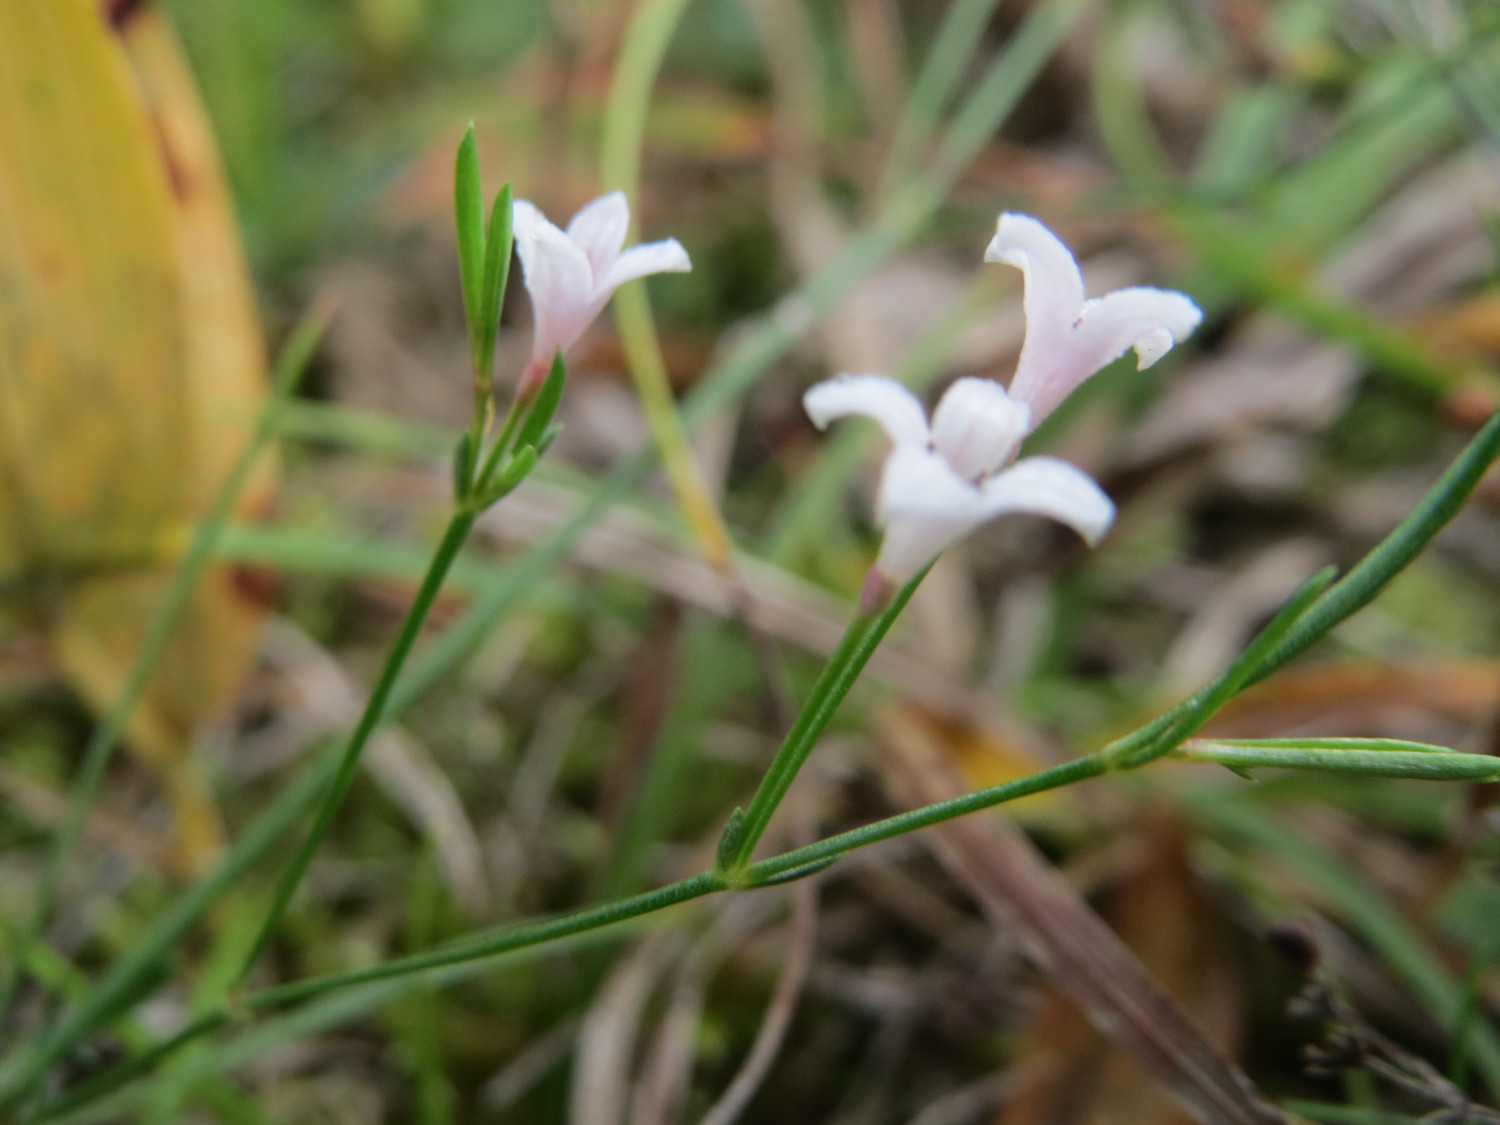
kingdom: Plantae
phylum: Tracheophyta
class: Magnoliopsida
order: Gentianales
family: Rubiaceae
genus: Cynanchica
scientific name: Cynanchica pyrenaica
